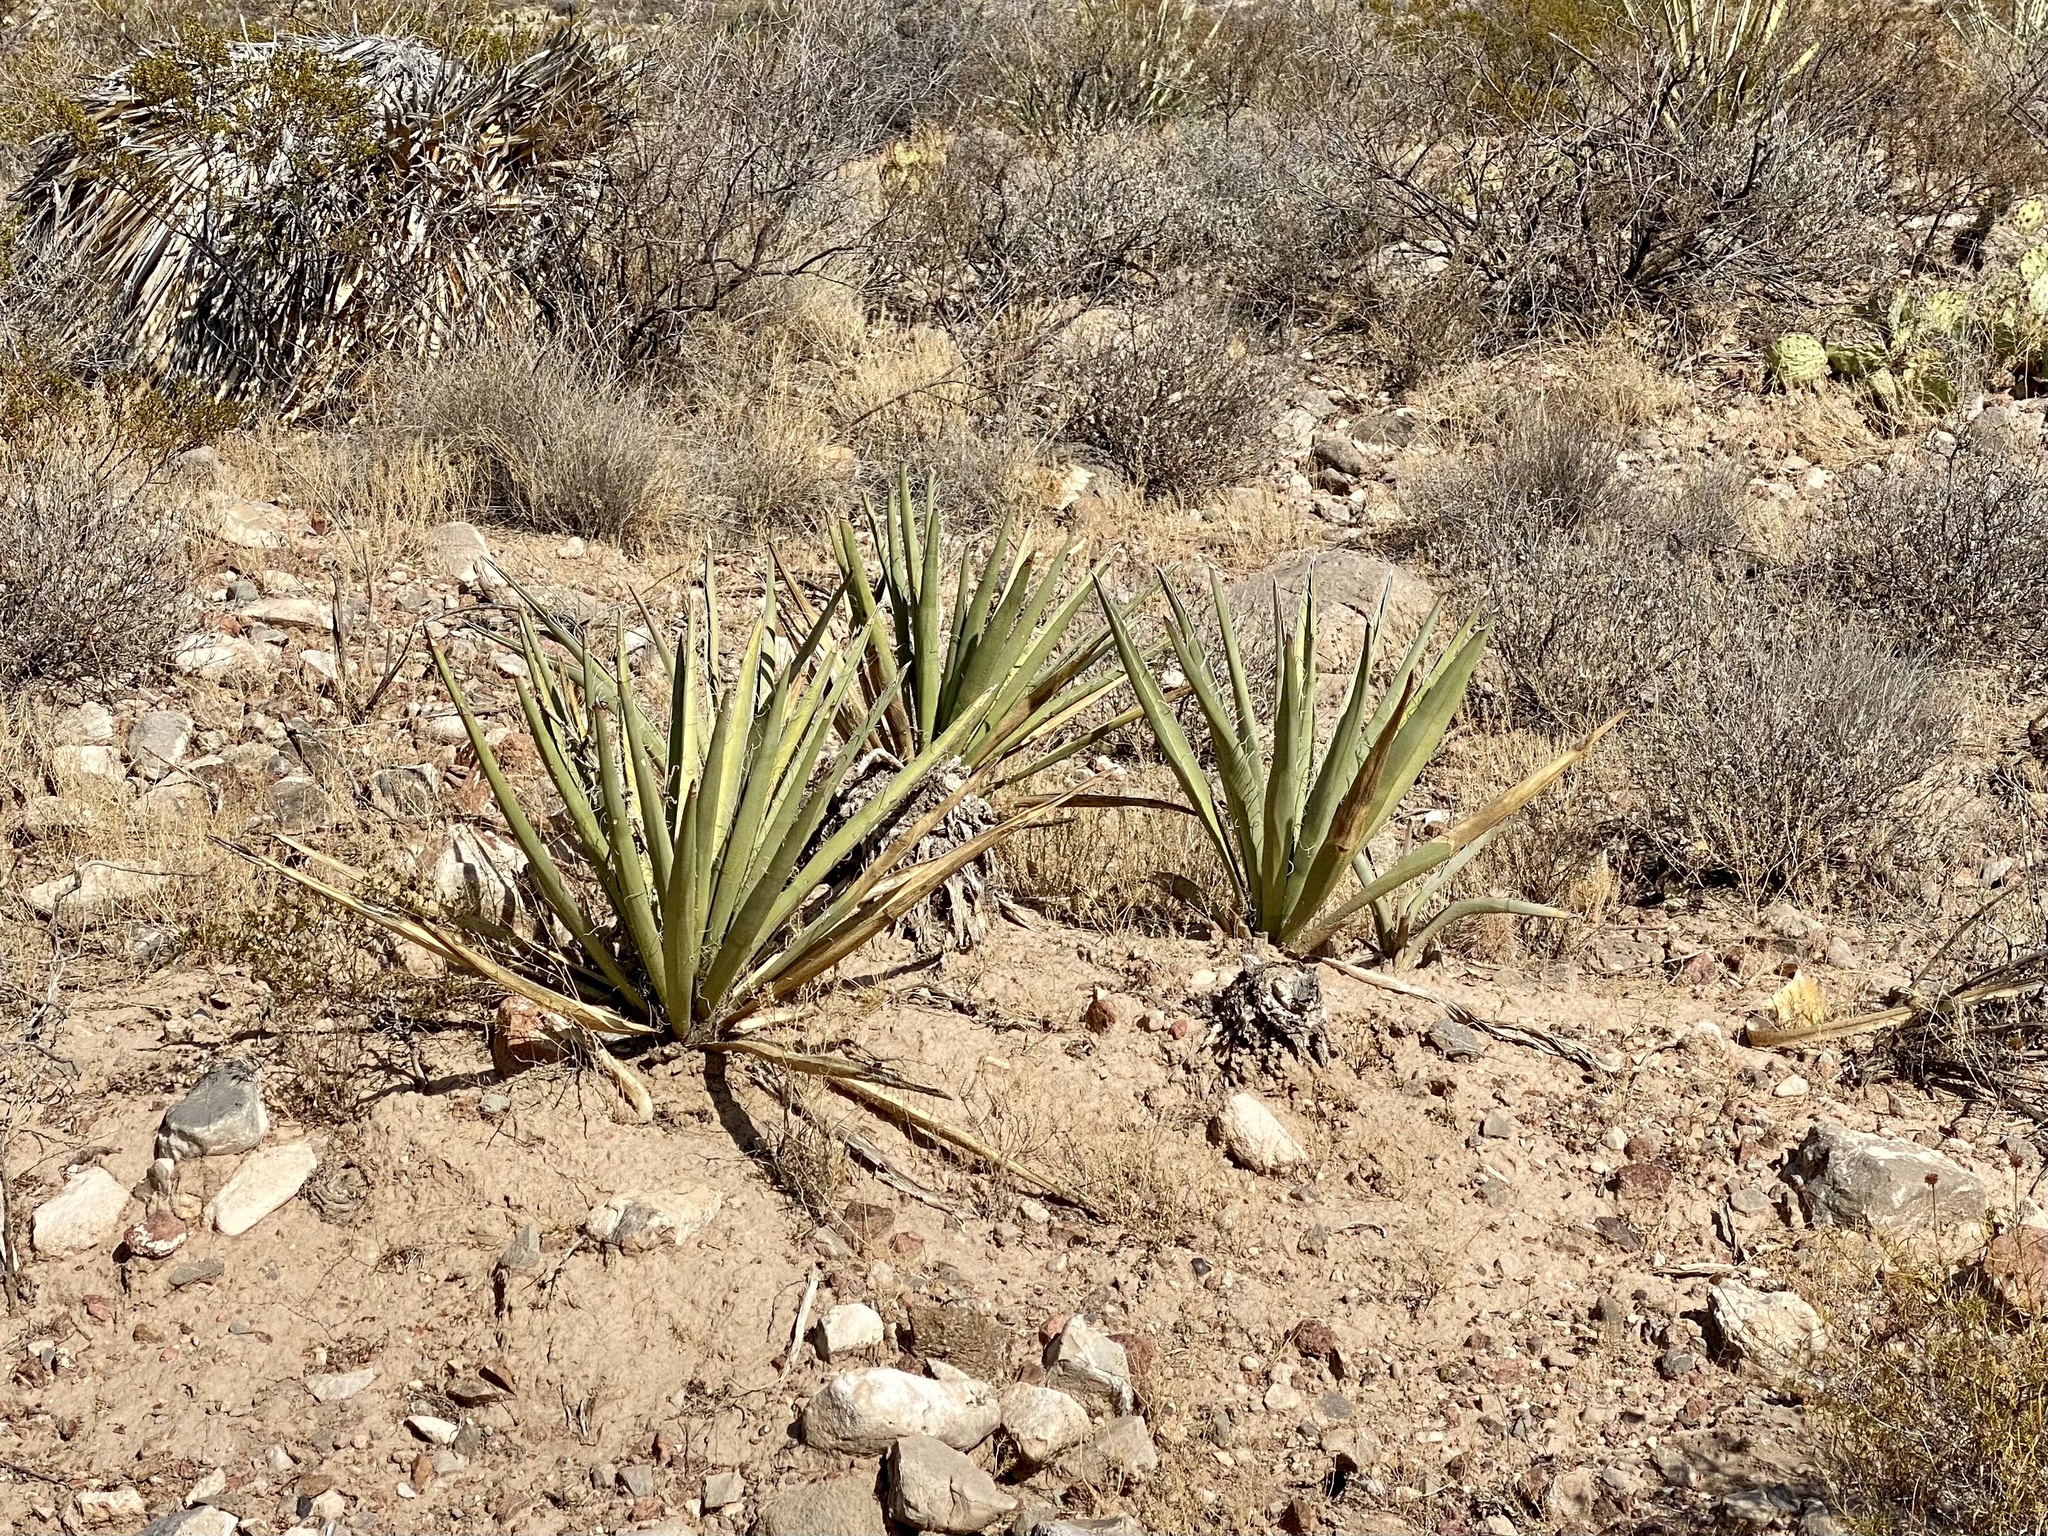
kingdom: Plantae
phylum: Tracheophyta
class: Liliopsida
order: Asparagales
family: Asparagaceae
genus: Agave
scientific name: Agave lechuguilla
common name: Lecheguilla agave
